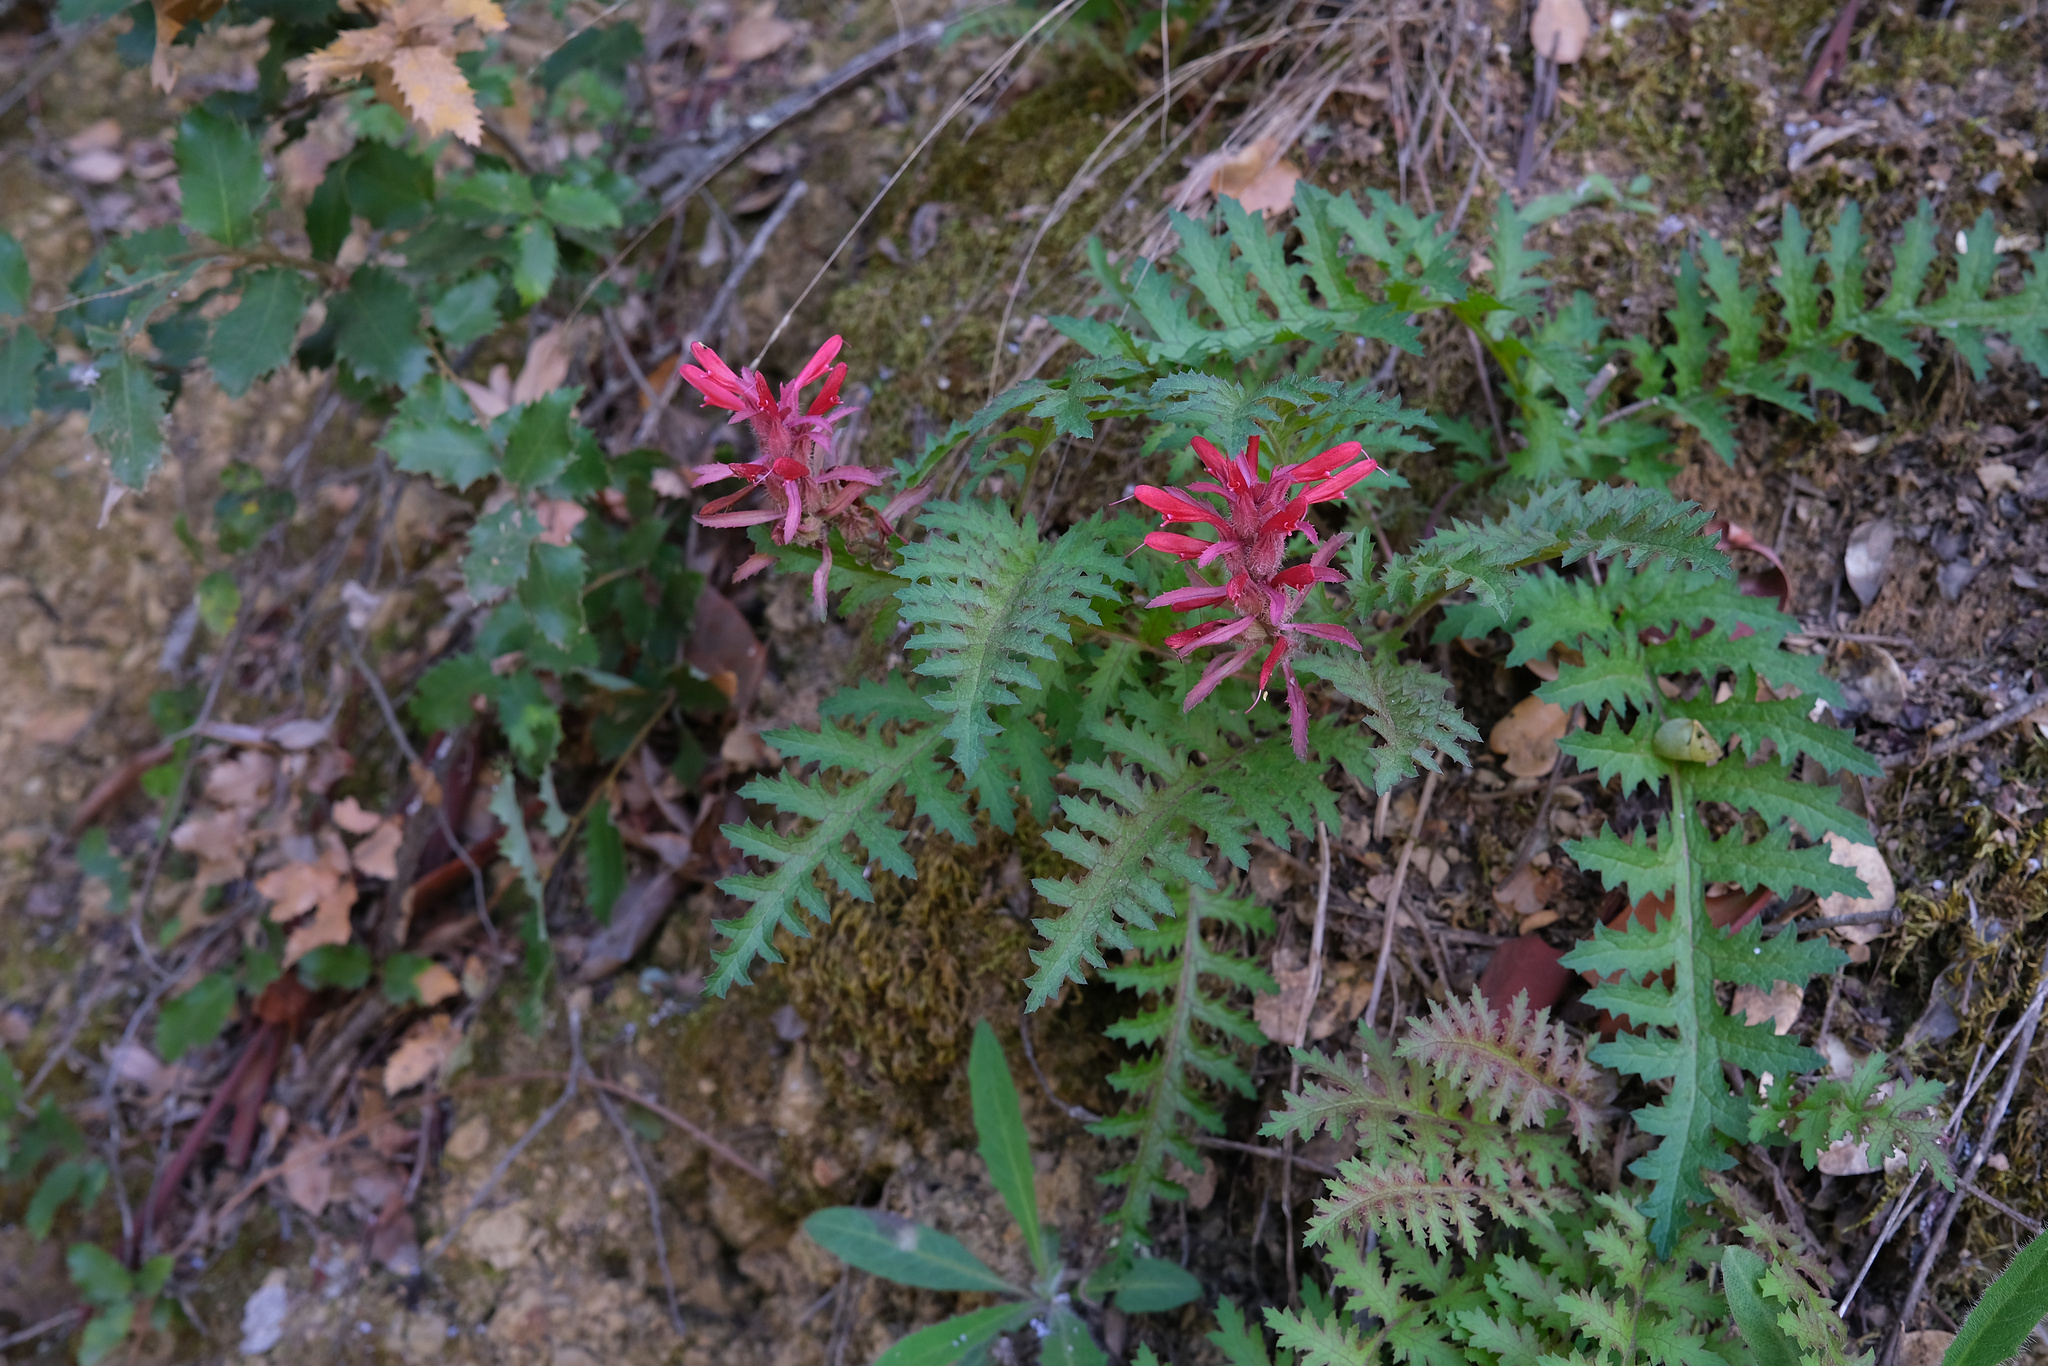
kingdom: Plantae
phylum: Tracheophyta
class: Magnoliopsida
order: Lamiales
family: Orobanchaceae
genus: Pedicularis
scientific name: Pedicularis densiflora
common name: Indian warrior
